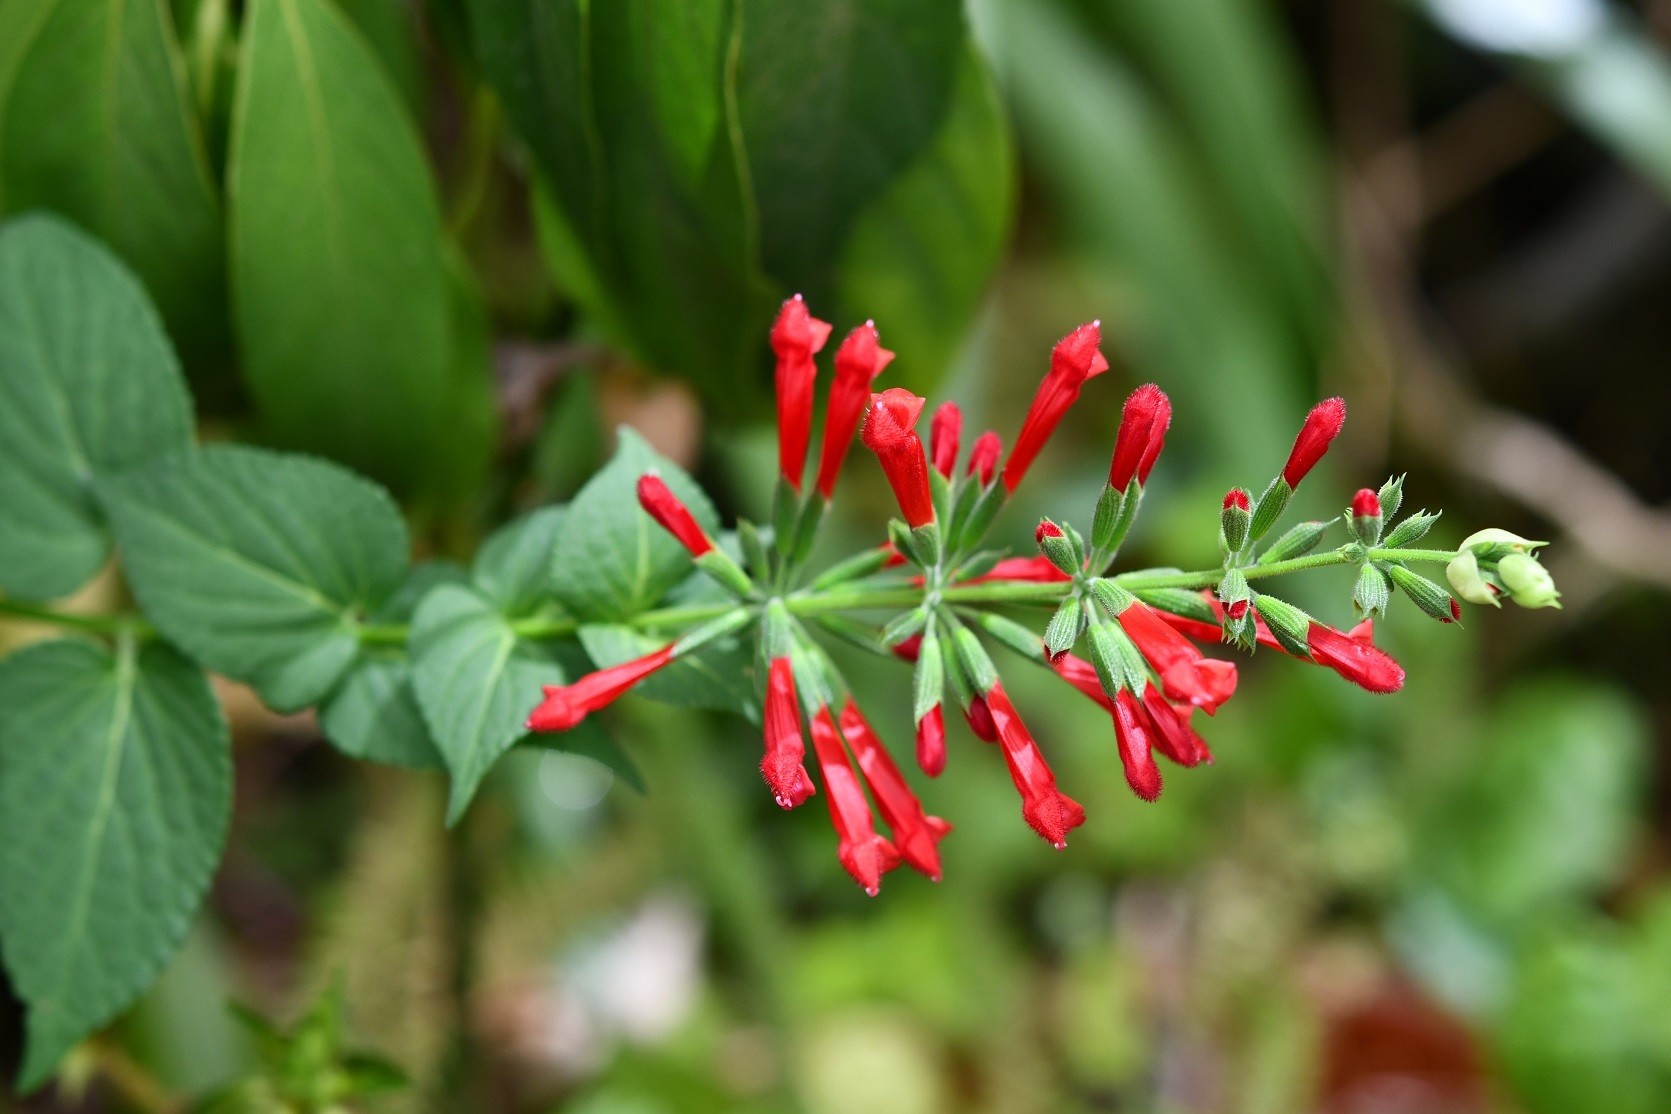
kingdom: Plantae
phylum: Tracheophyta
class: Magnoliopsida
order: Lamiales
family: Lamiaceae
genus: Salvia
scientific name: Salvia holwayi
